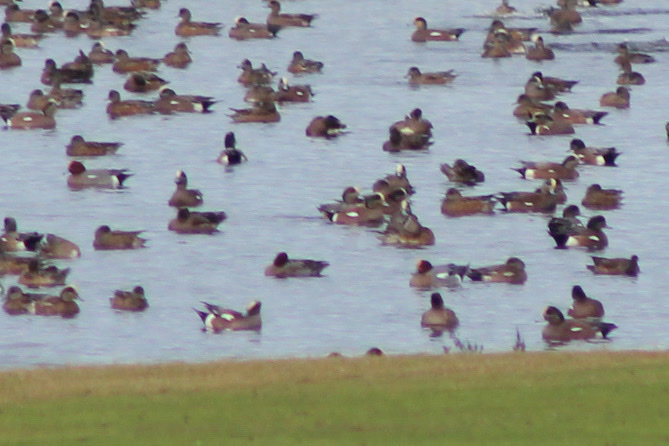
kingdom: Animalia
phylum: Chordata
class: Aves
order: Anseriformes
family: Anatidae
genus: Mareca
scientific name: Mareca penelope
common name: Eurasian wigeon
